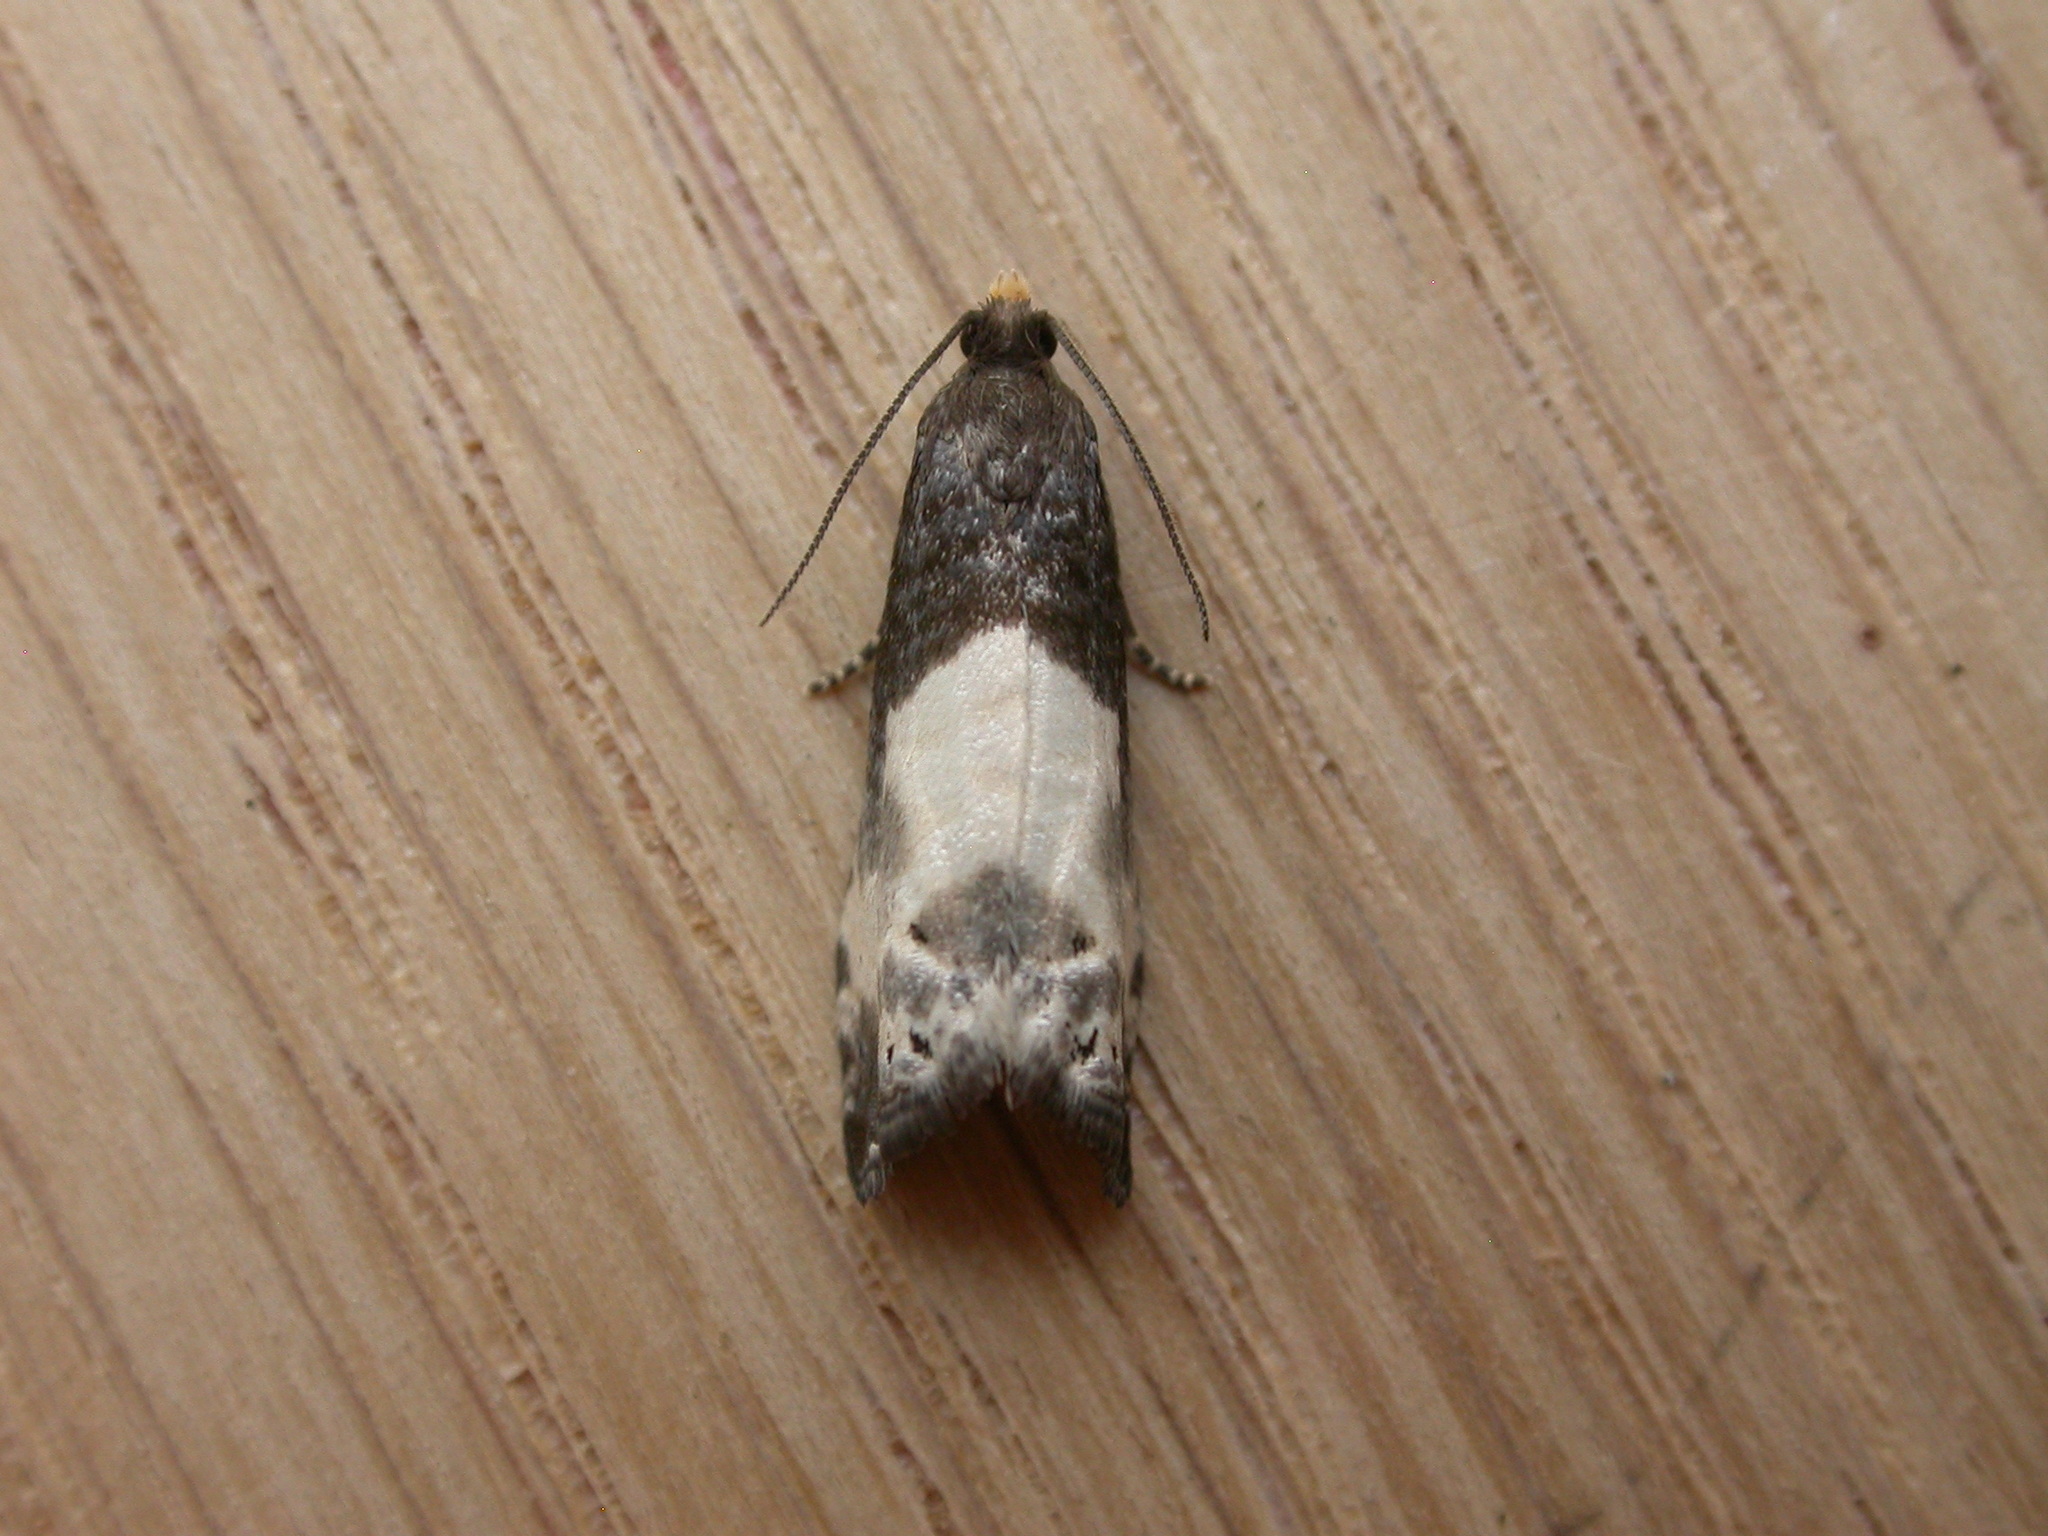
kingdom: Animalia
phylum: Arthropoda
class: Insecta
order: Lepidoptera
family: Tortricidae
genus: Notocelia
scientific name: Notocelia cynosbatella
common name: Yellow-faced bell moth
